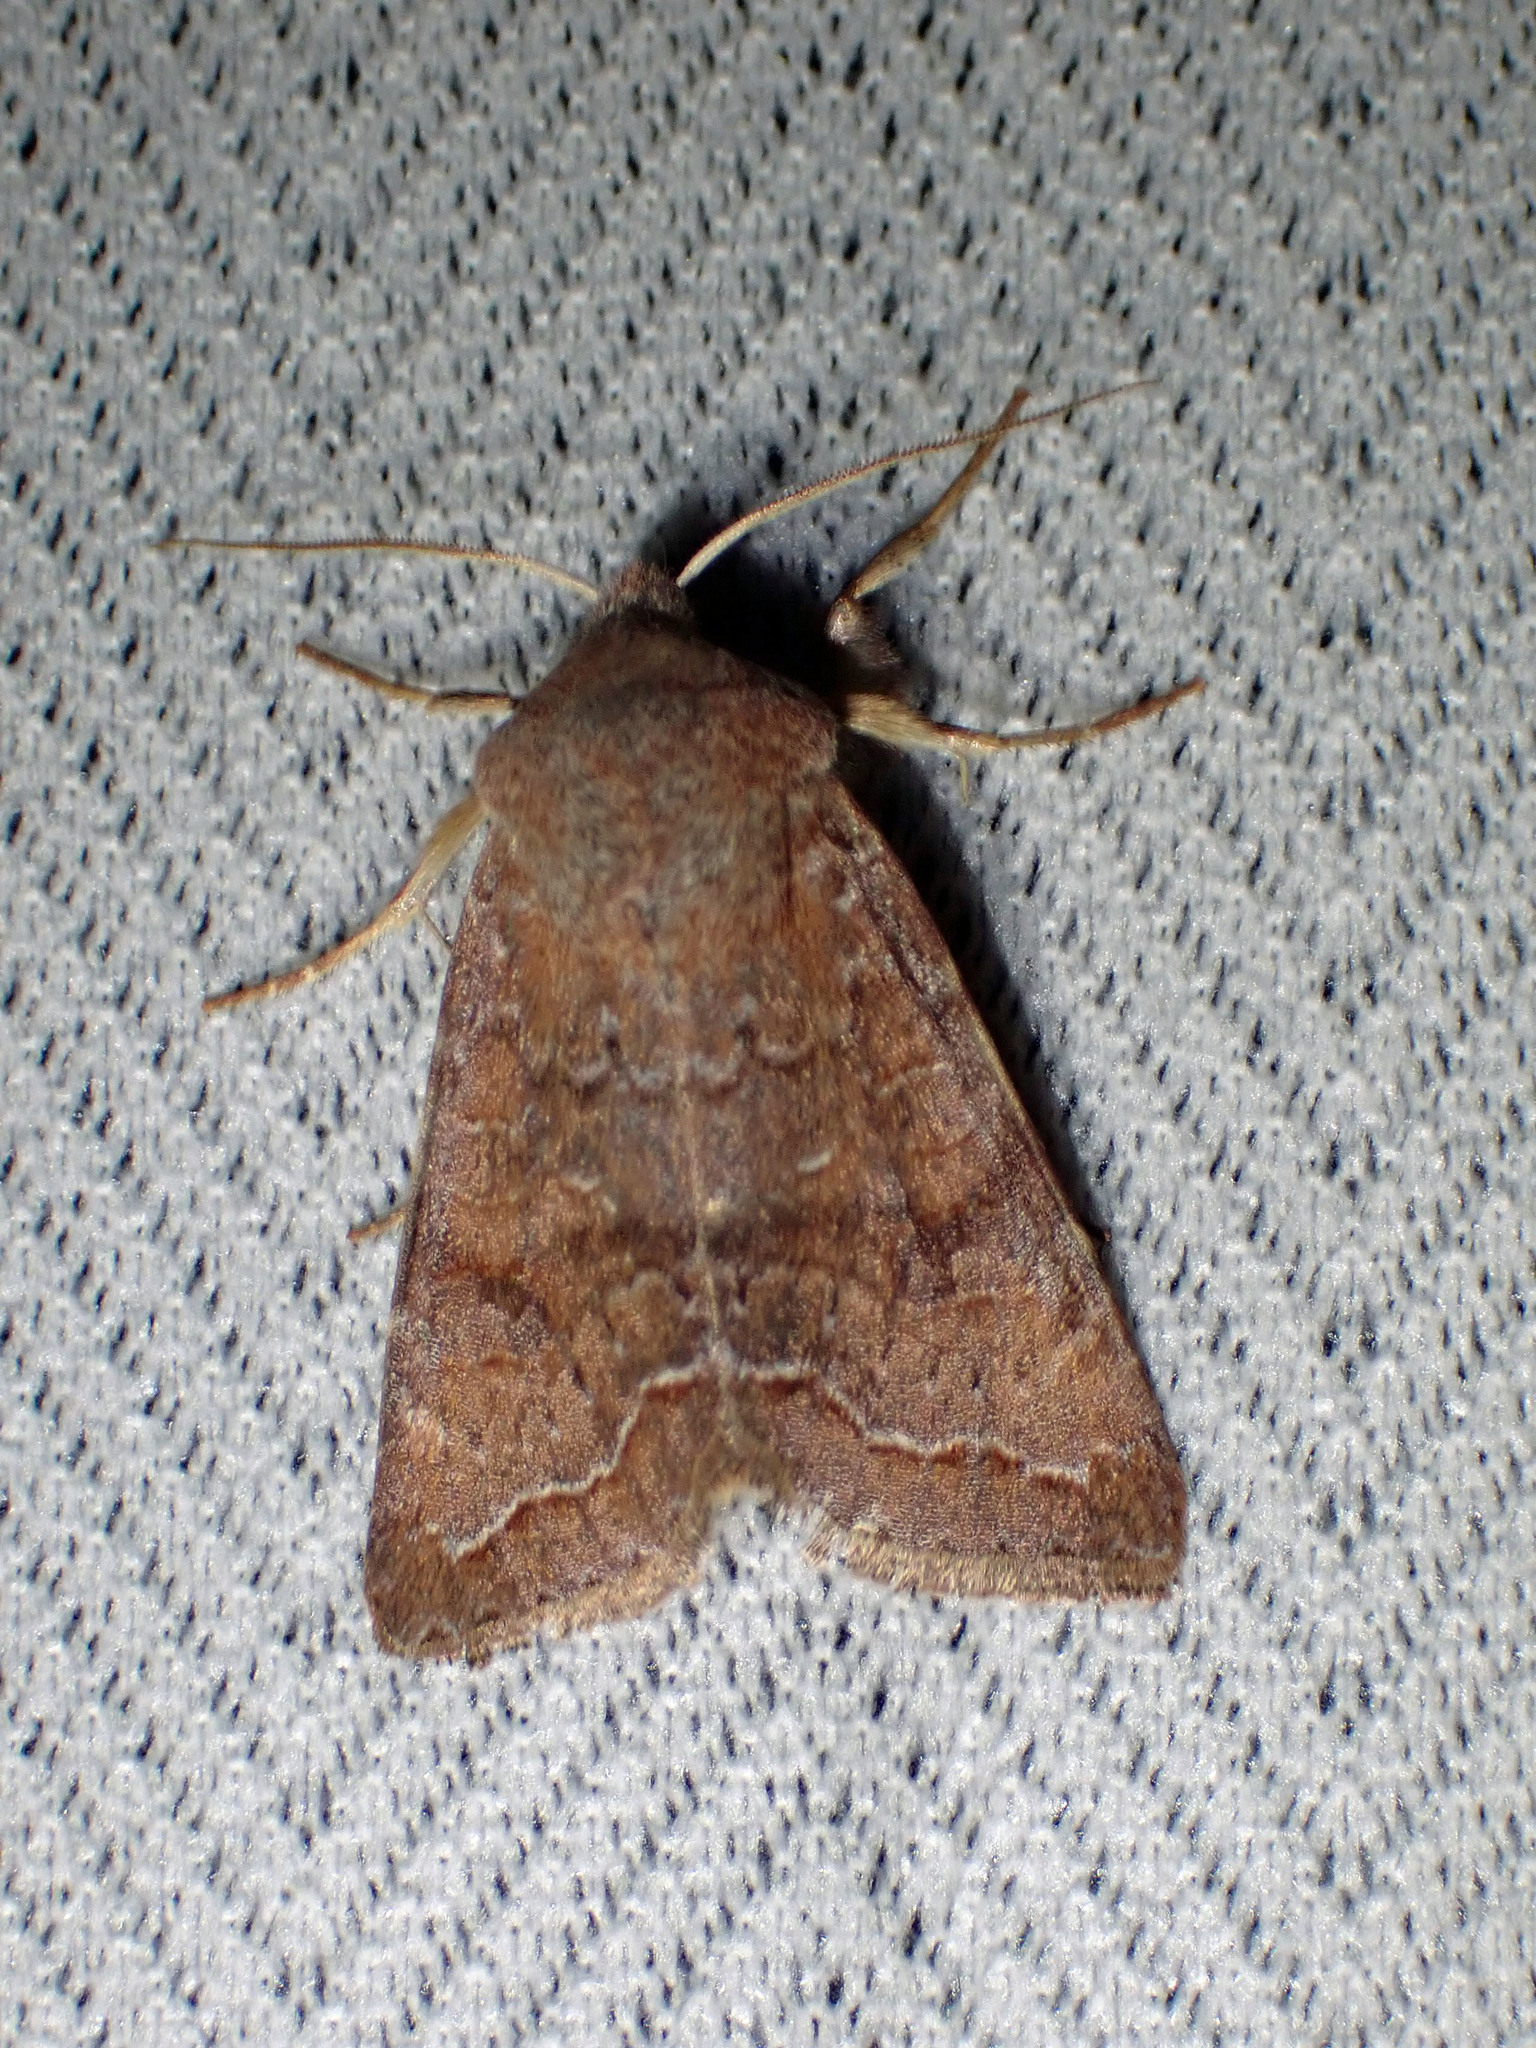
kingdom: Animalia
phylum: Arthropoda
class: Insecta
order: Lepidoptera
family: Noctuidae
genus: Orthosia
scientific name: Orthosia revicta
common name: Rusty whitesided caterpillar
